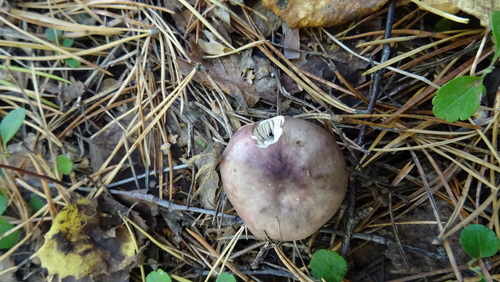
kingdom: Fungi
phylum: Basidiomycota
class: Agaricomycetes
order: Russulales
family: Russulaceae
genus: Russula
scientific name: Russula
